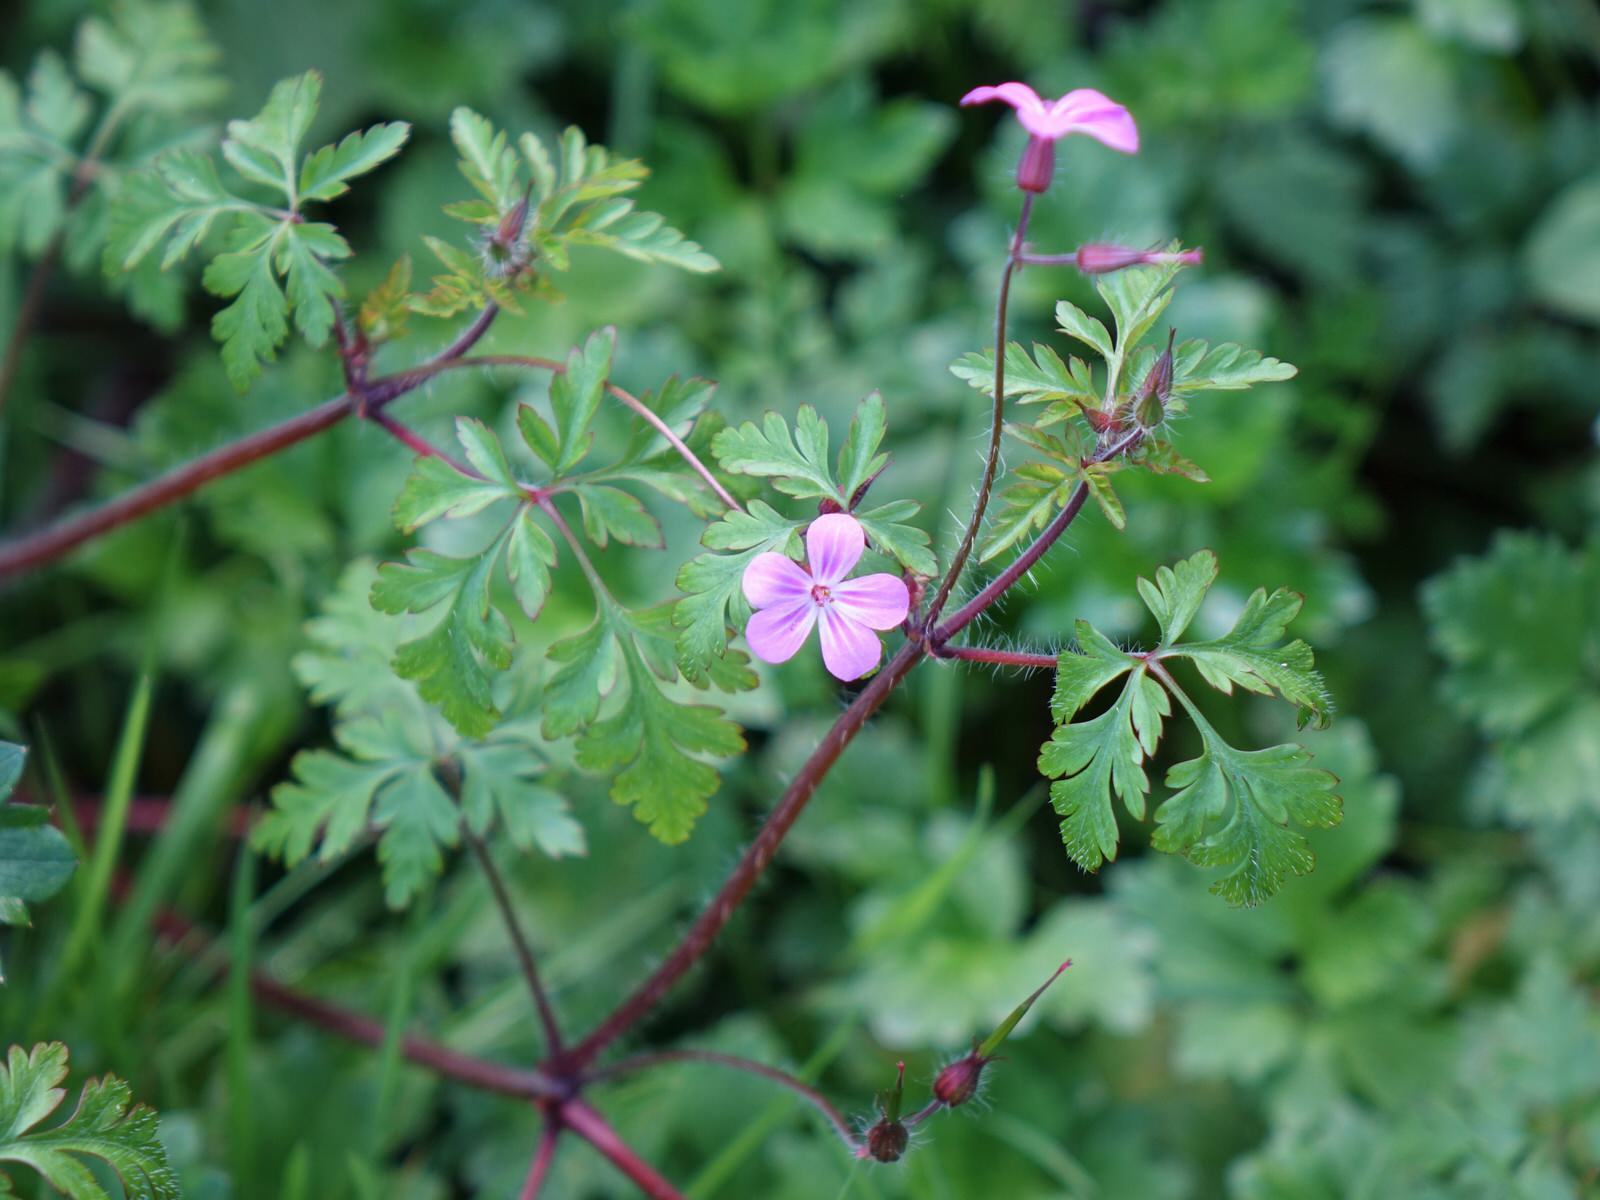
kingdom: Plantae
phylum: Tracheophyta
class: Magnoliopsida
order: Geraniales
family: Geraniaceae
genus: Geranium
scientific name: Geranium robertianum
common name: Herb-robert
